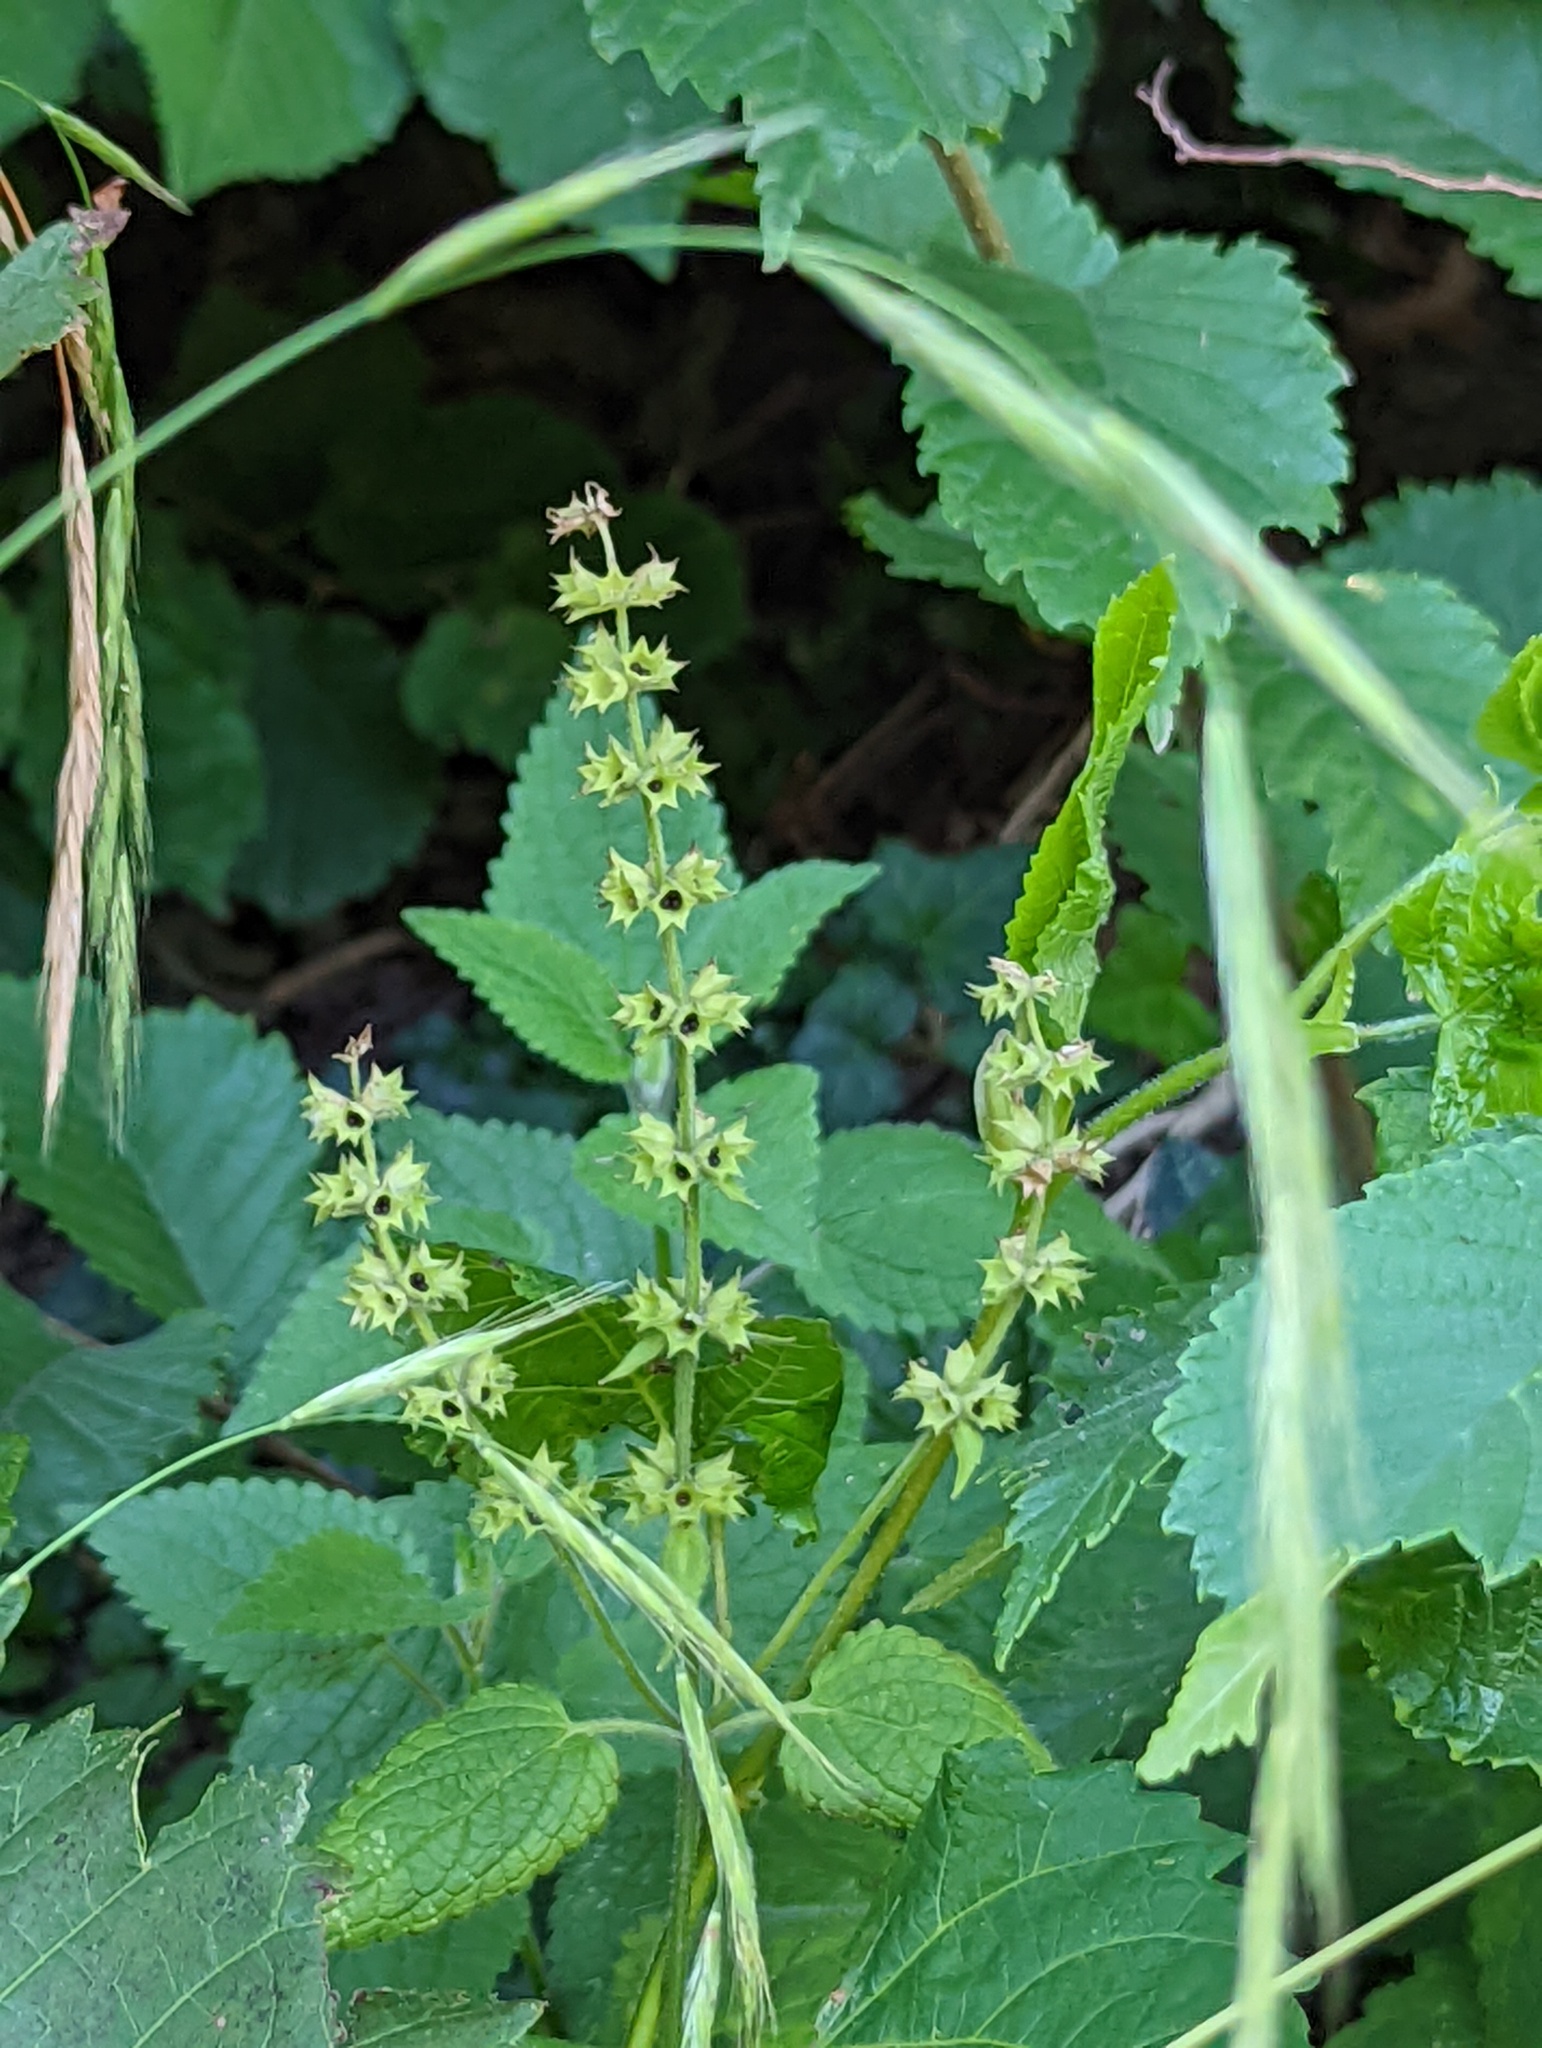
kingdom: Plantae
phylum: Tracheophyta
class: Magnoliopsida
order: Lamiales
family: Lamiaceae
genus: Stachys
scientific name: Stachys sylvatica
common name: Hedge woundwort
